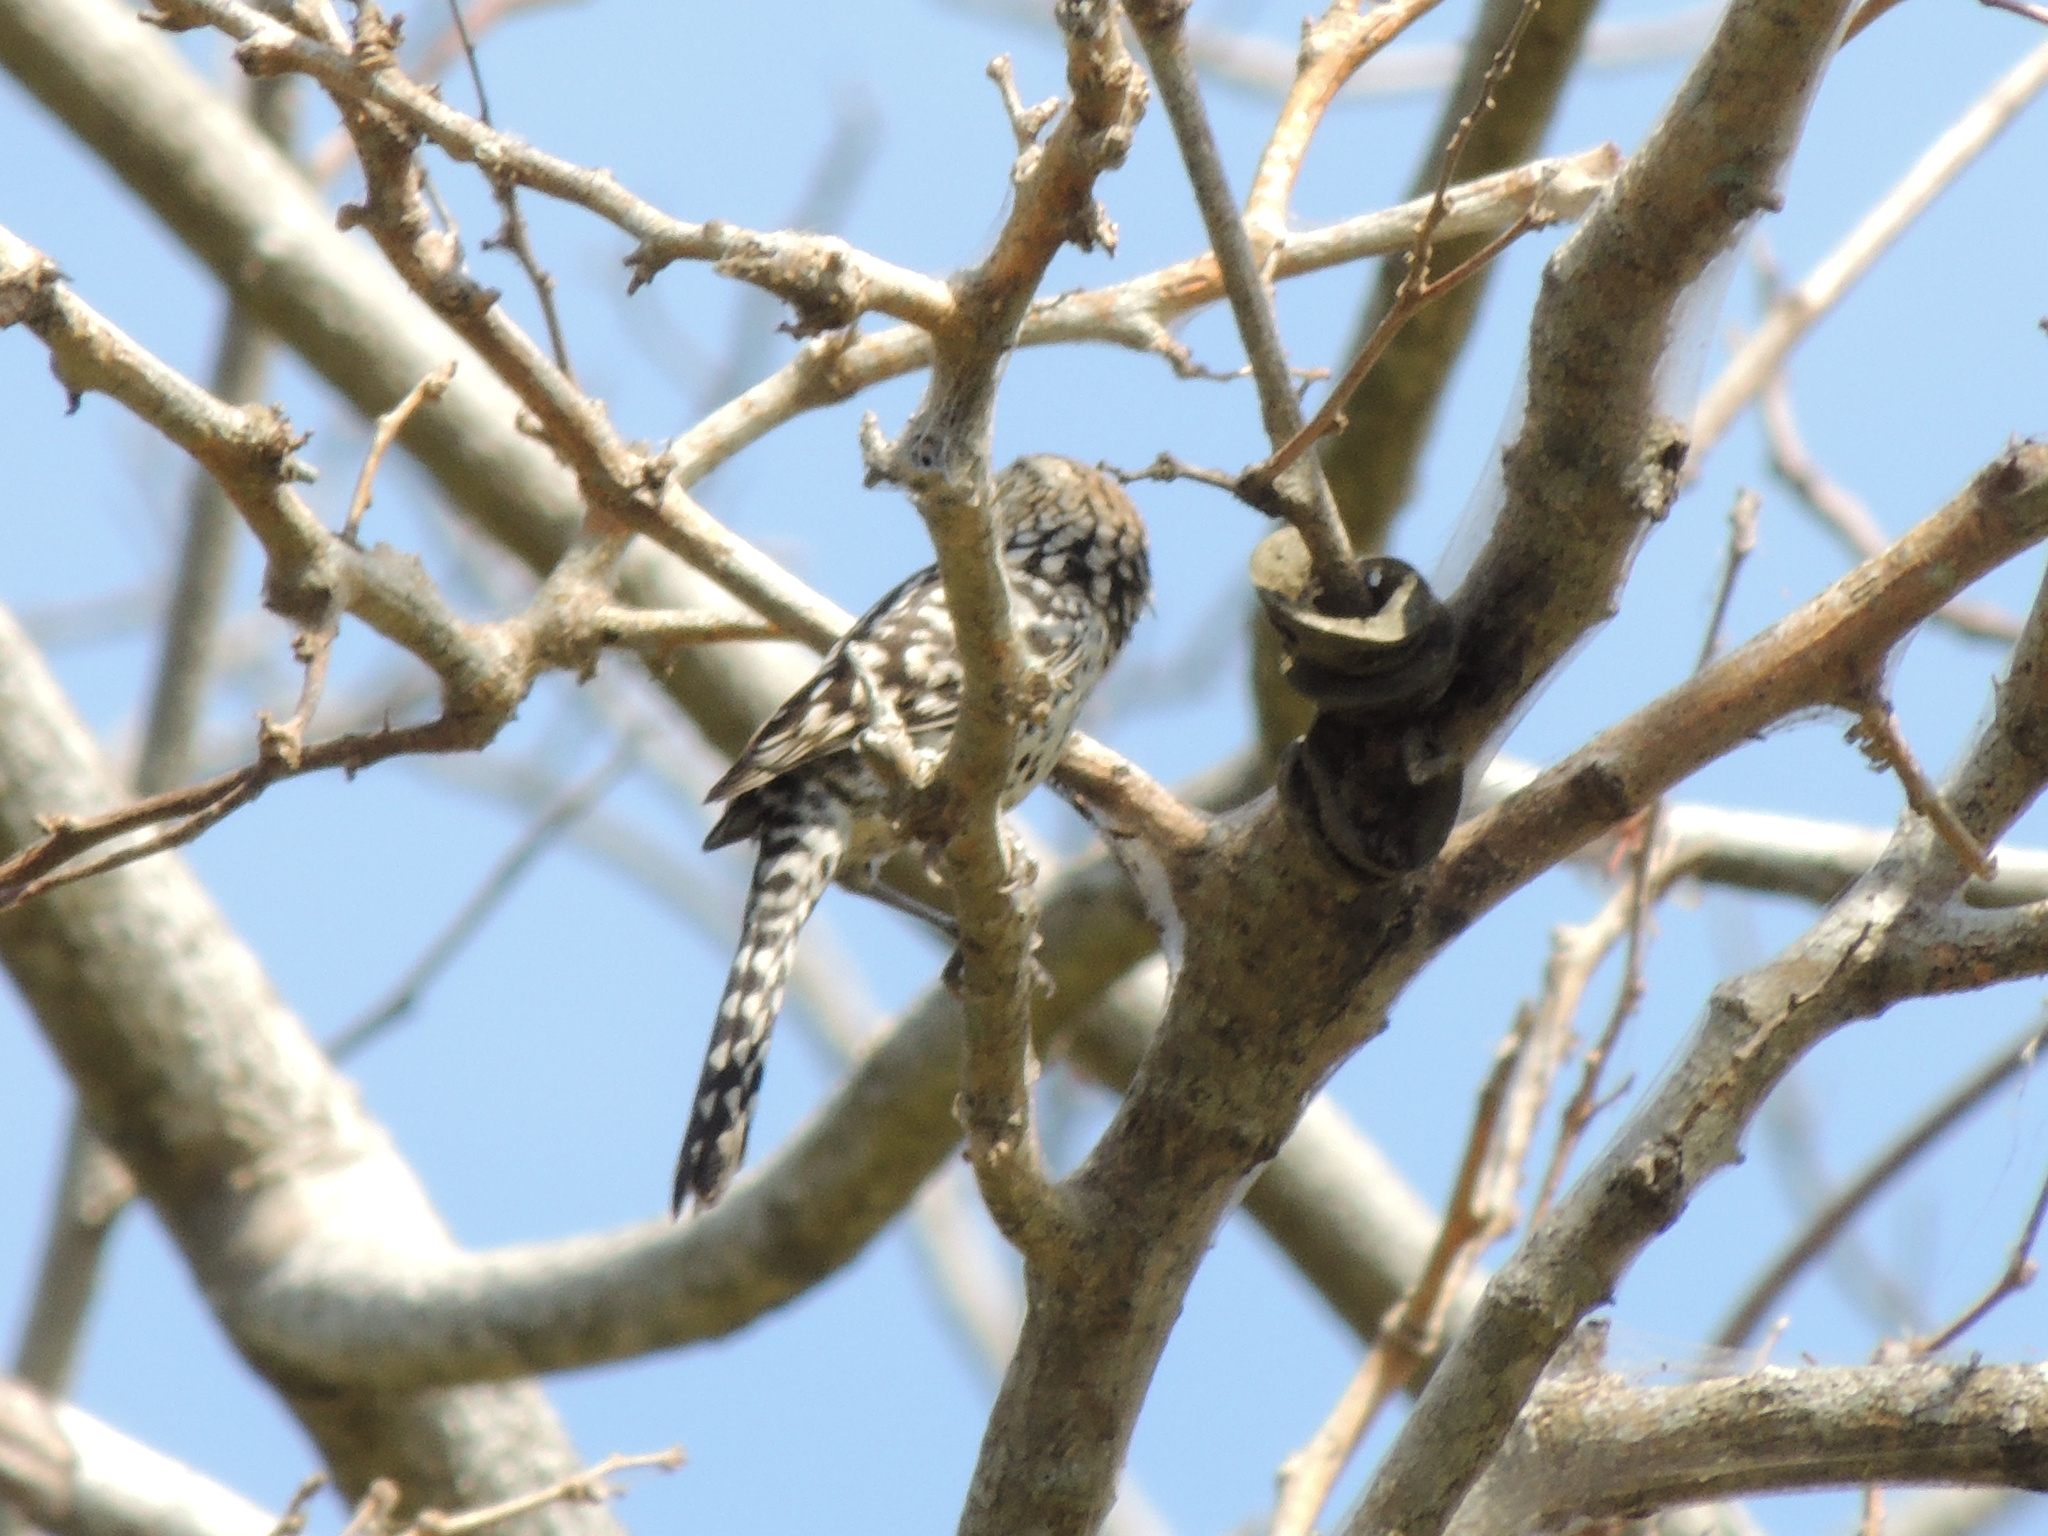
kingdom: Animalia
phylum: Chordata
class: Aves
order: Passeriformes
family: Troglodytidae
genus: Campylorhynchus
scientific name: Campylorhynchus nuchalis
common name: Stripe-backed wren
